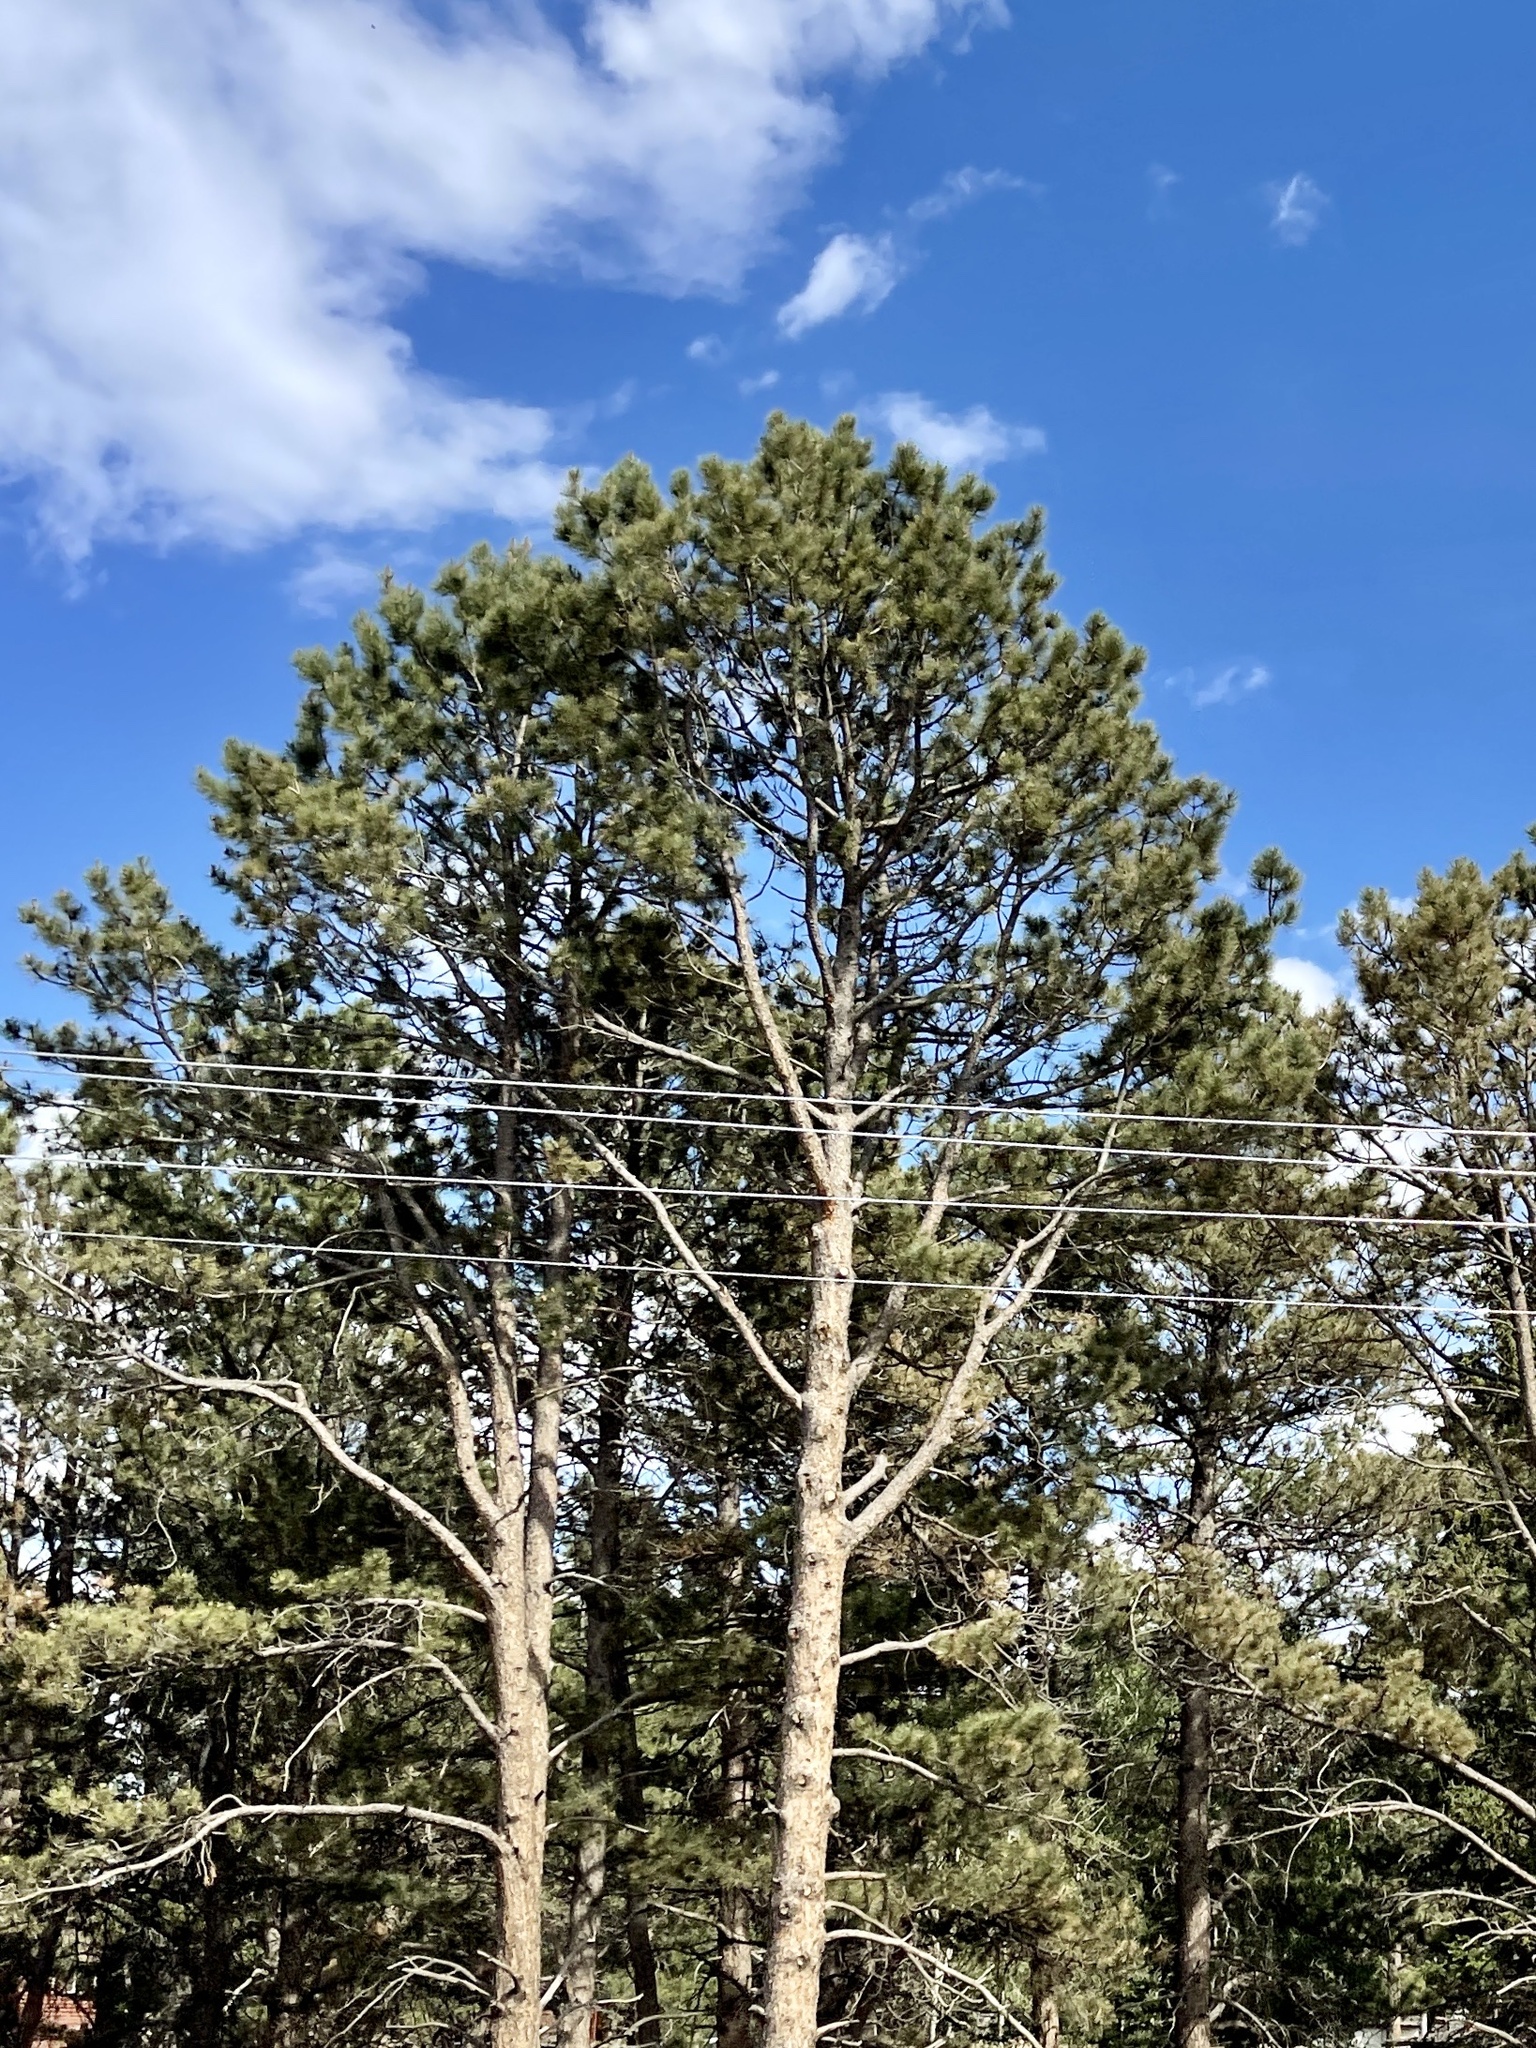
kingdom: Plantae
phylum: Tracheophyta
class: Pinopsida
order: Pinales
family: Pinaceae
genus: Pinus
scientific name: Pinus ponderosa
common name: Western yellow-pine
